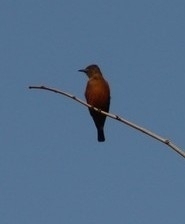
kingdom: Animalia
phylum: Chordata
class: Aves
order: Passeriformes
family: Tyrannidae
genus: Hirundinea
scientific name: Hirundinea ferruginea
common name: Cliff flycatcher
